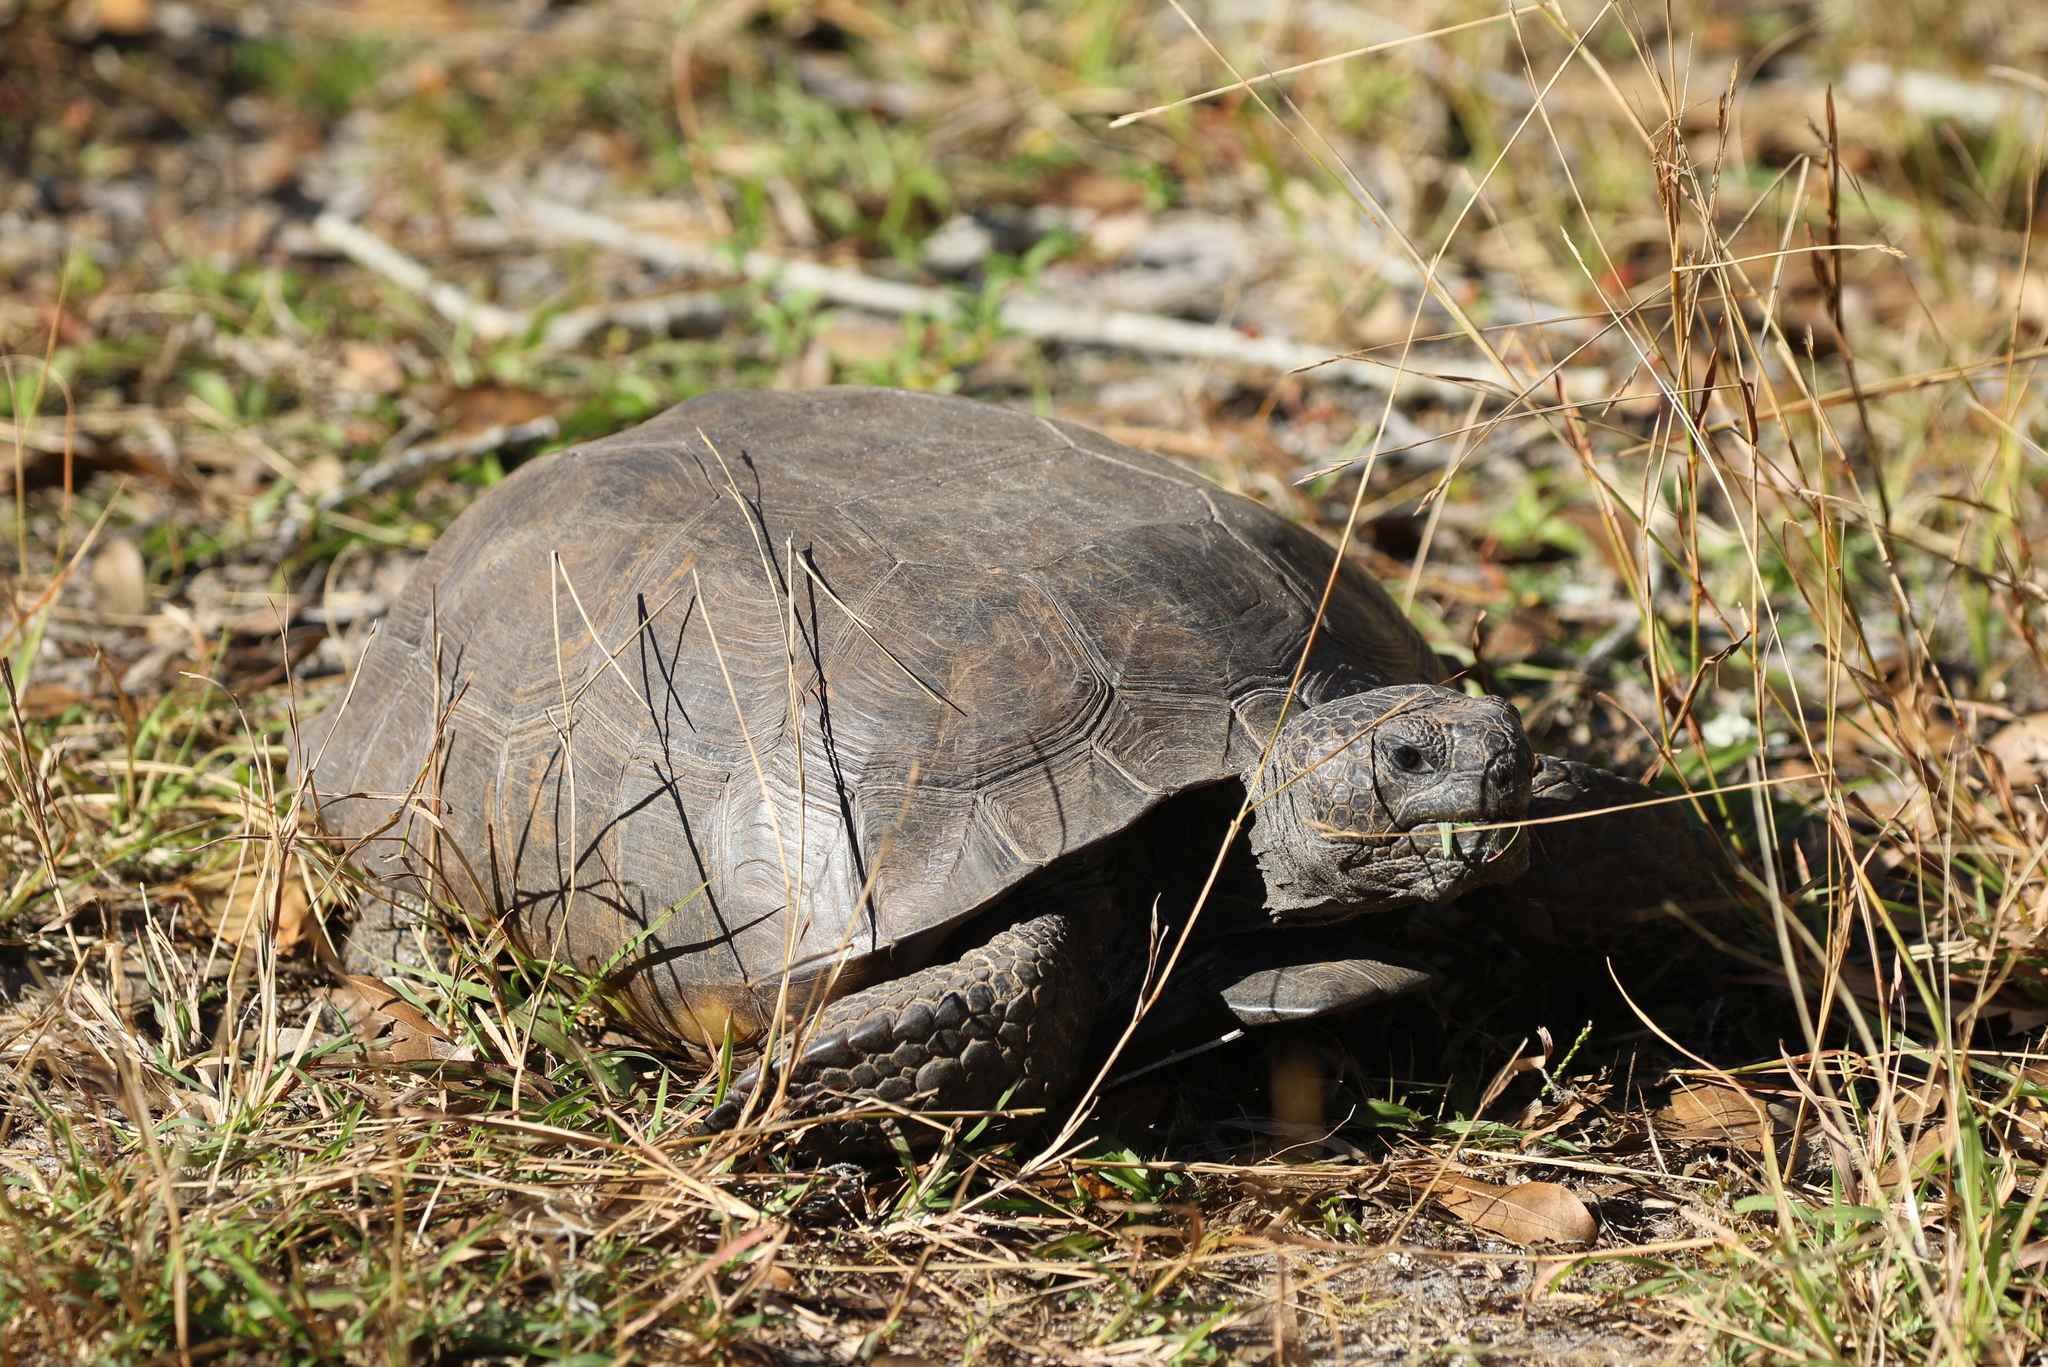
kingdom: Animalia
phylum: Chordata
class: Testudines
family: Testudinidae
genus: Gopherus
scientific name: Gopherus polyphemus
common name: Florida gopher tortoise
